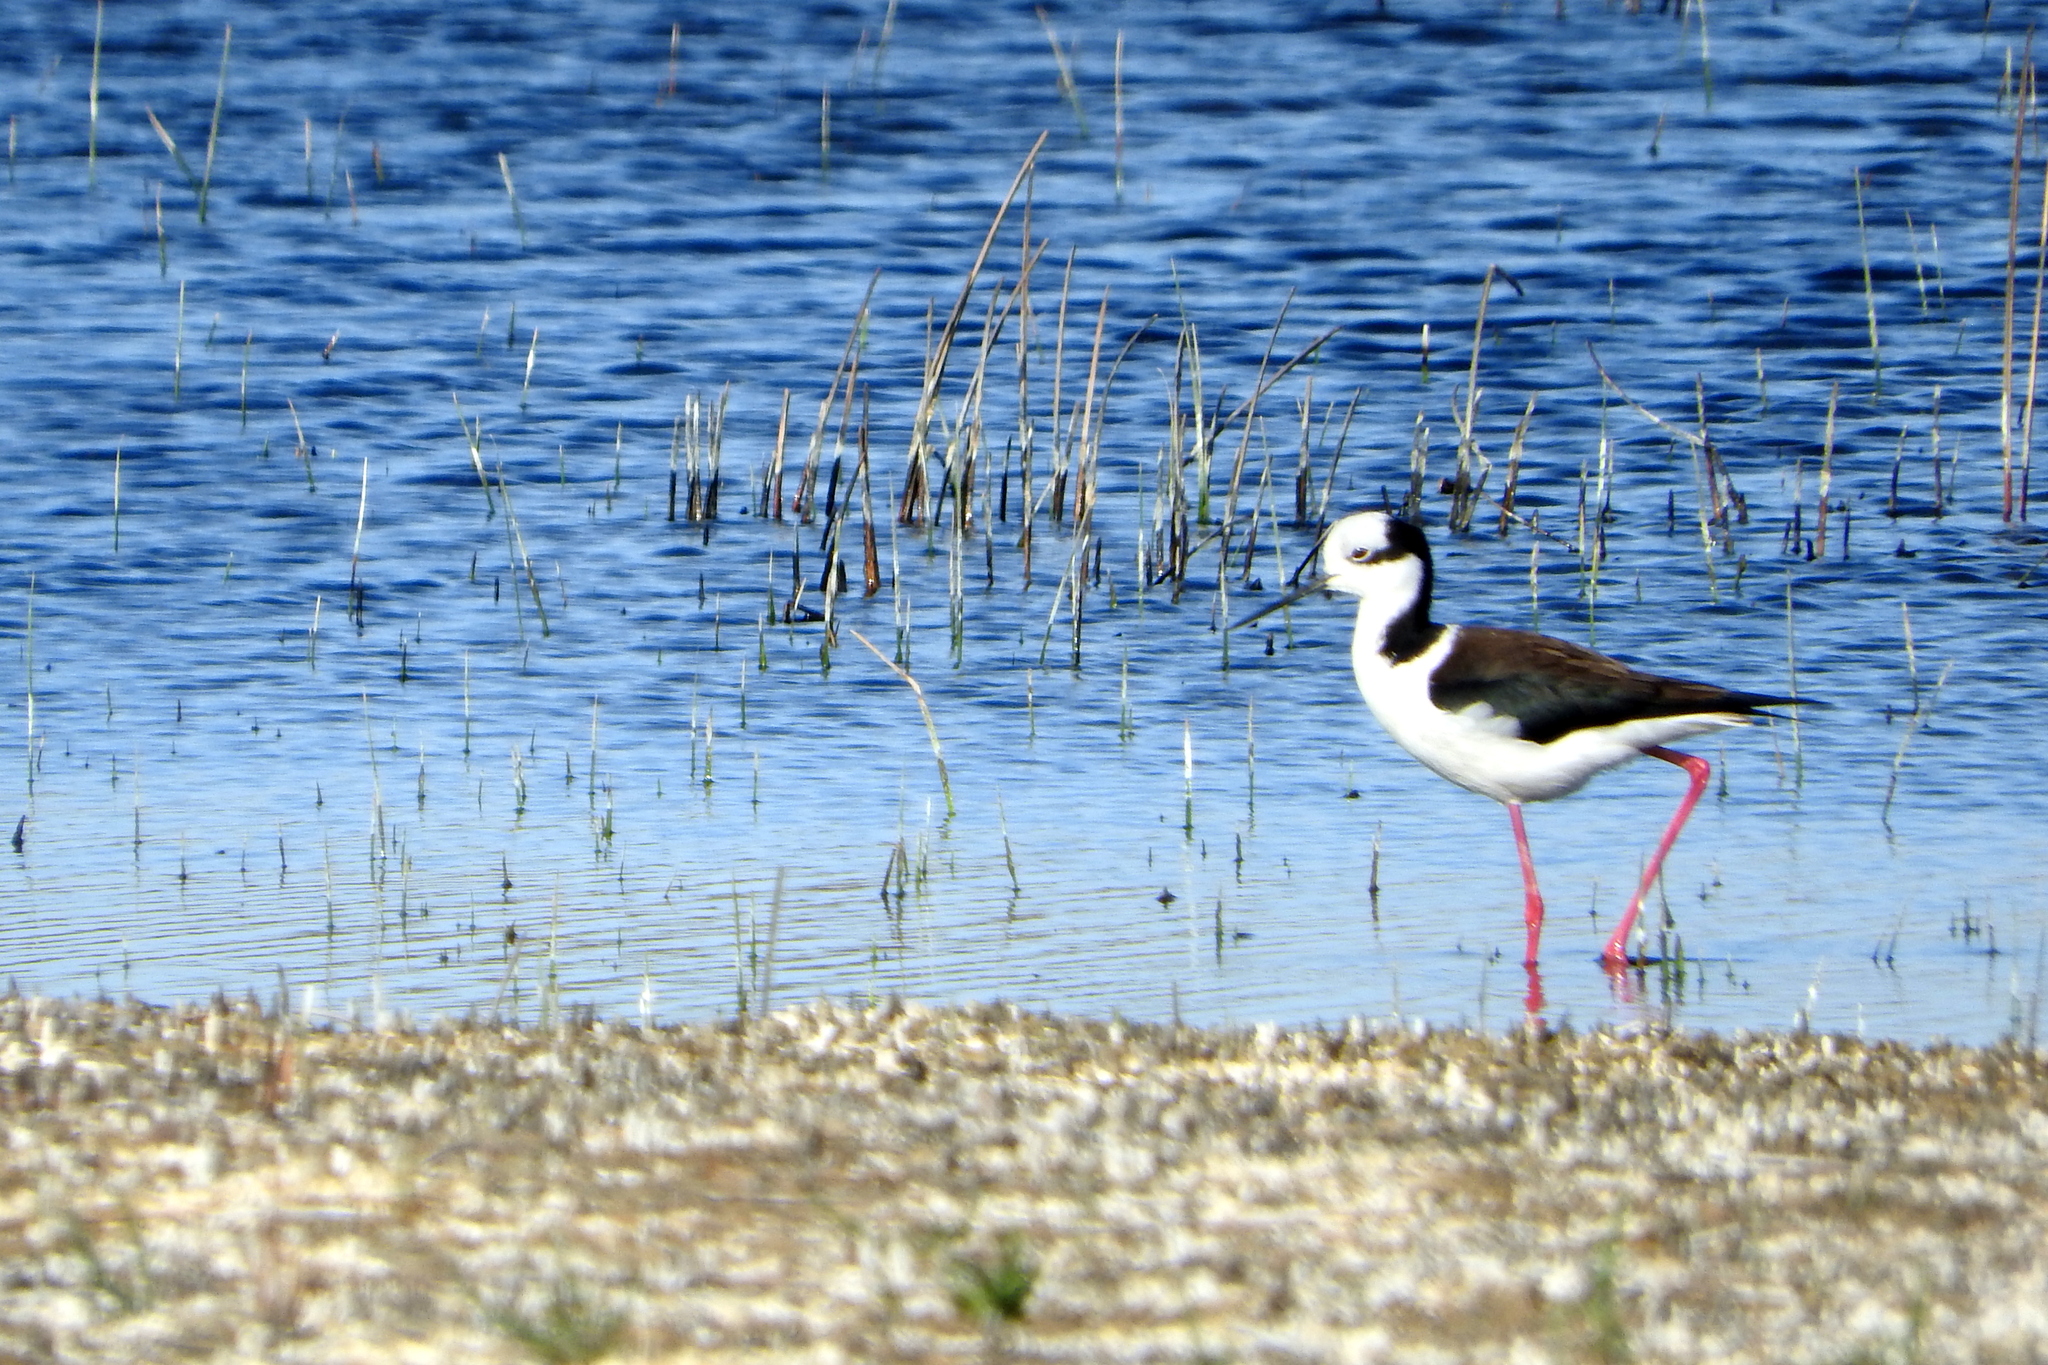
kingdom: Animalia
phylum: Chordata
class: Aves
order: Charadriiformes
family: Recurvirostridae
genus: Himantopus
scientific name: Himantopus mexicanus
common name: Black-necked stilt
